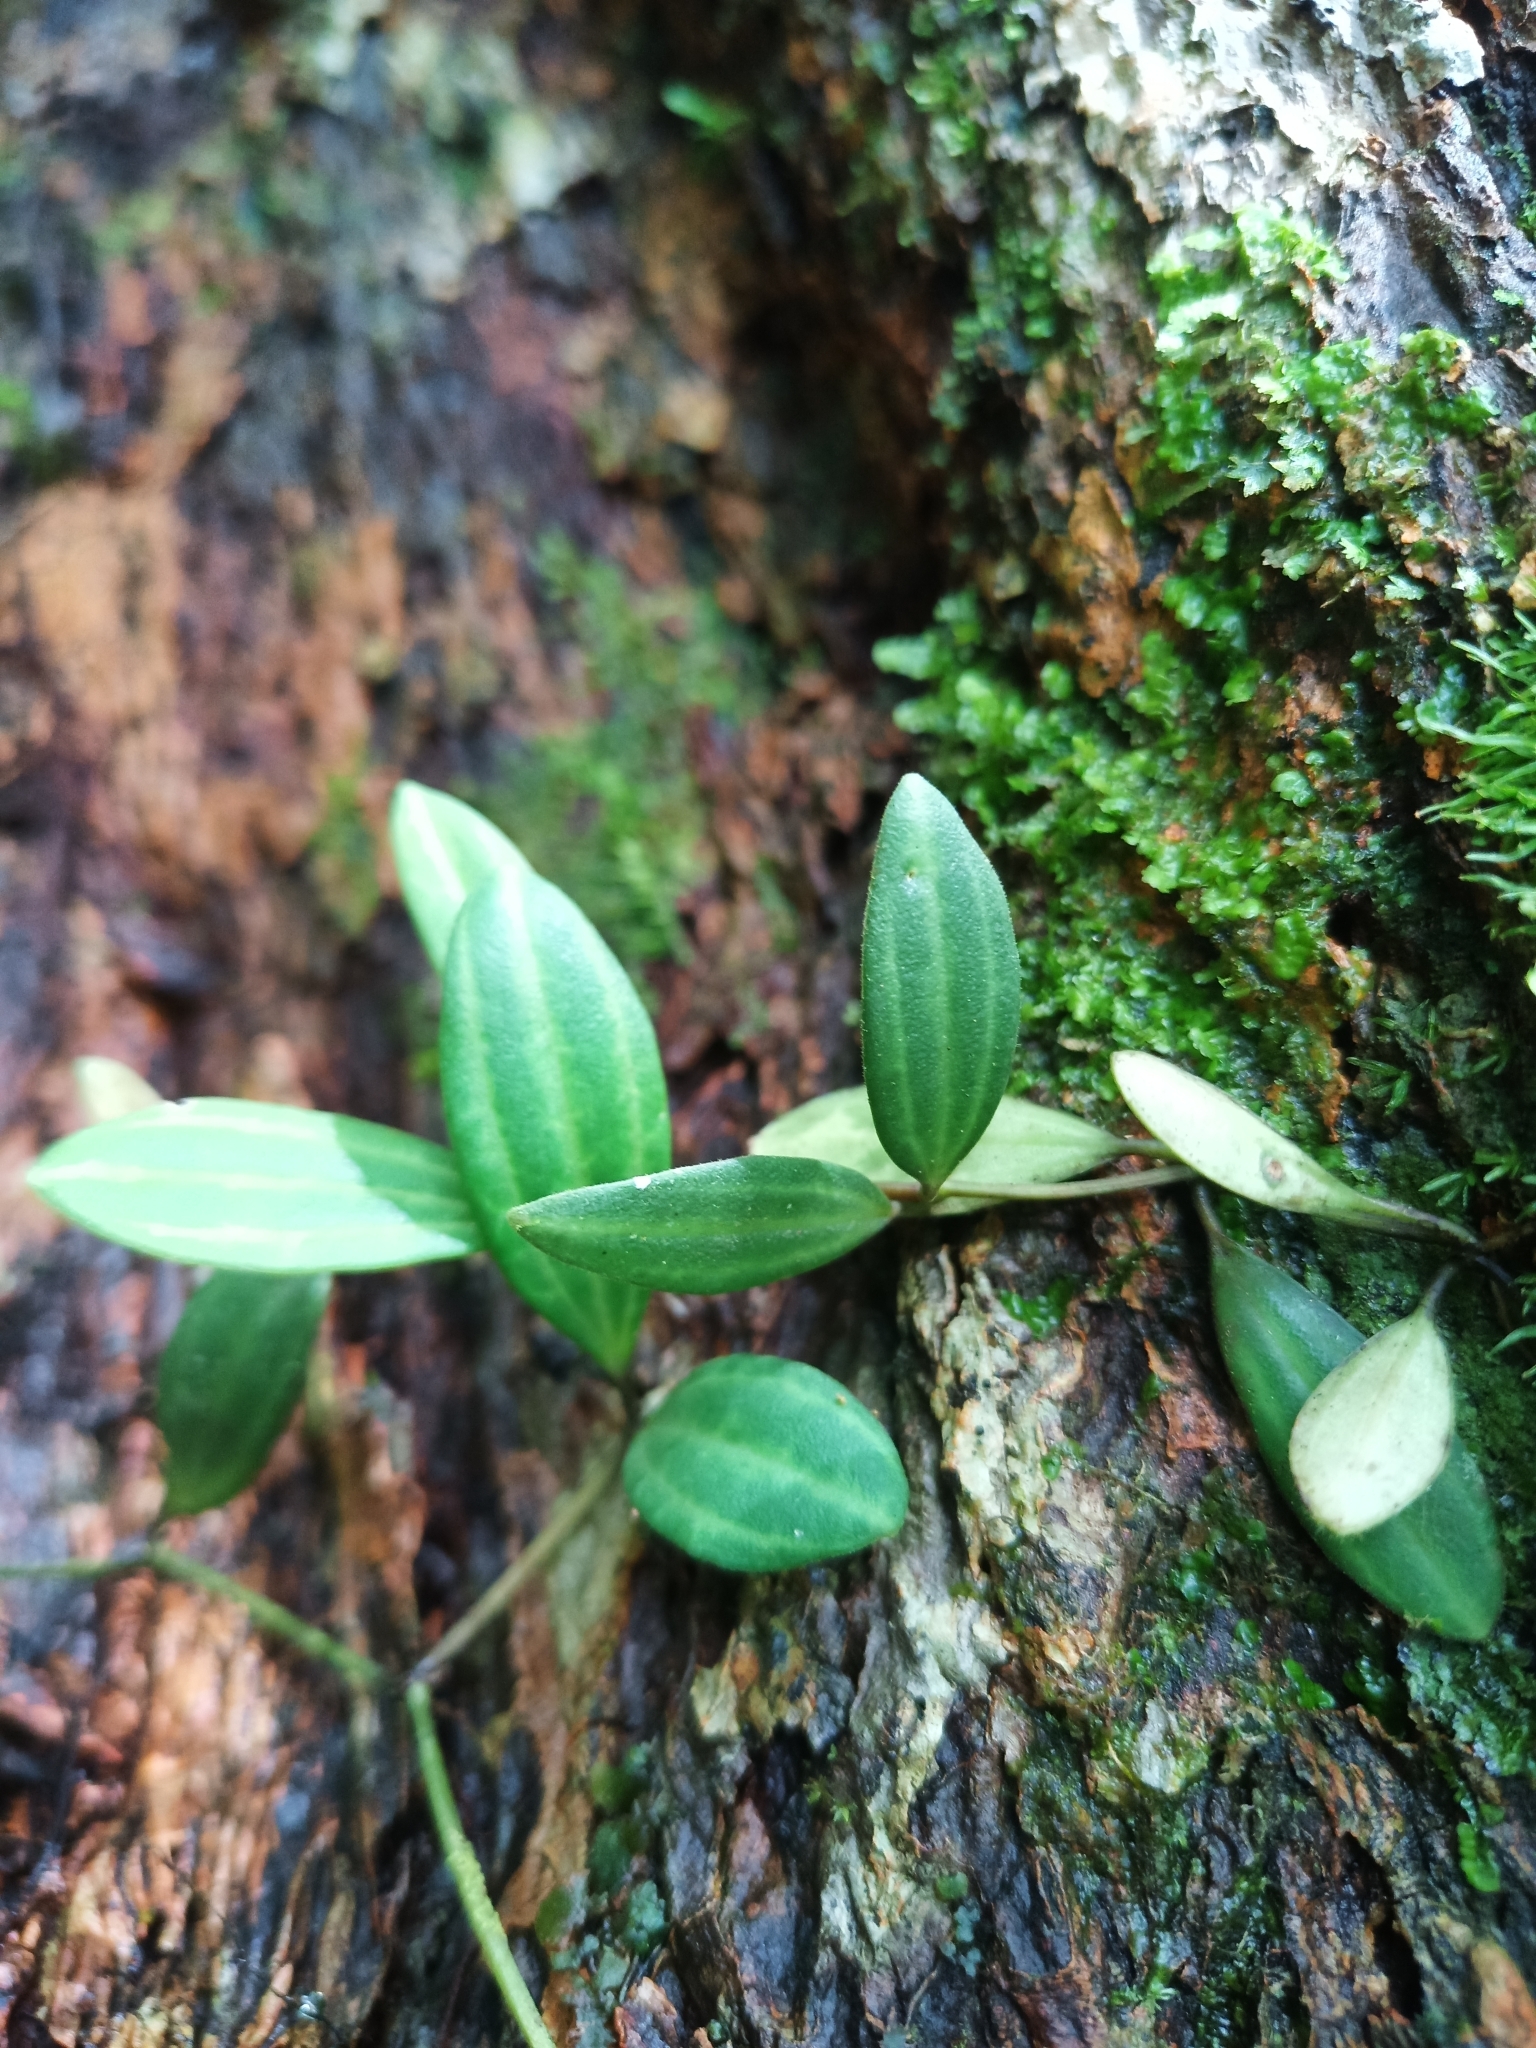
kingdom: Plantae
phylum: Tracheophyta
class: Magnoliopsida
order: Piperales
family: Piperaceae
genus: Peperomia
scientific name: Peperomia quadrangularis
